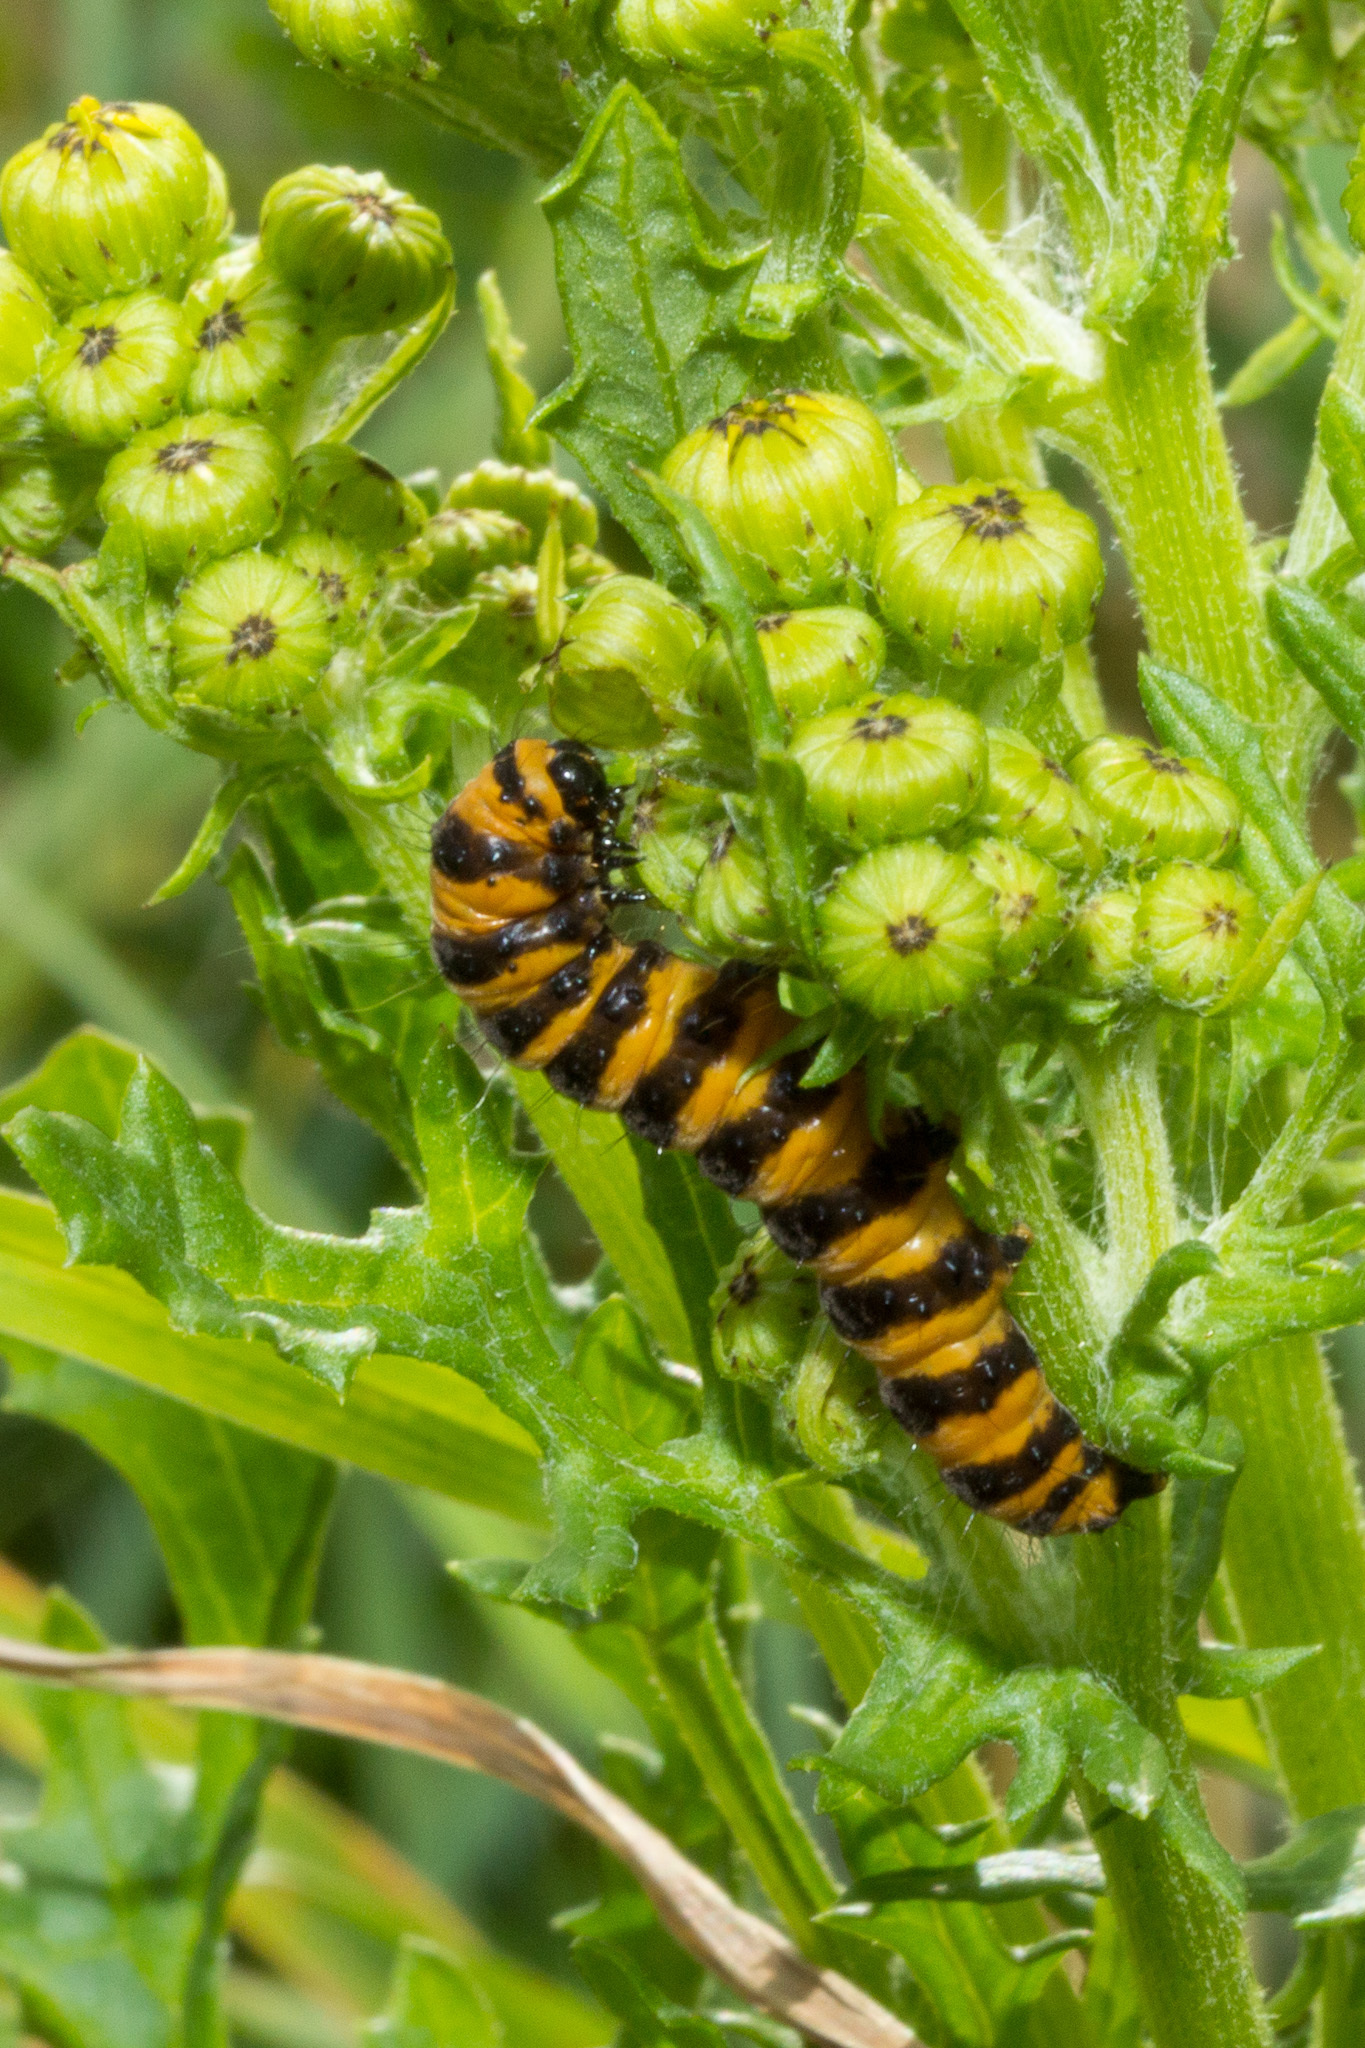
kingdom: Animalia
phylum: Arthropoda
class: Insecta
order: Lepidoptera
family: Erebidae
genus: Tyria
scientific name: Tyria jacobaeae
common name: Cinnabar
